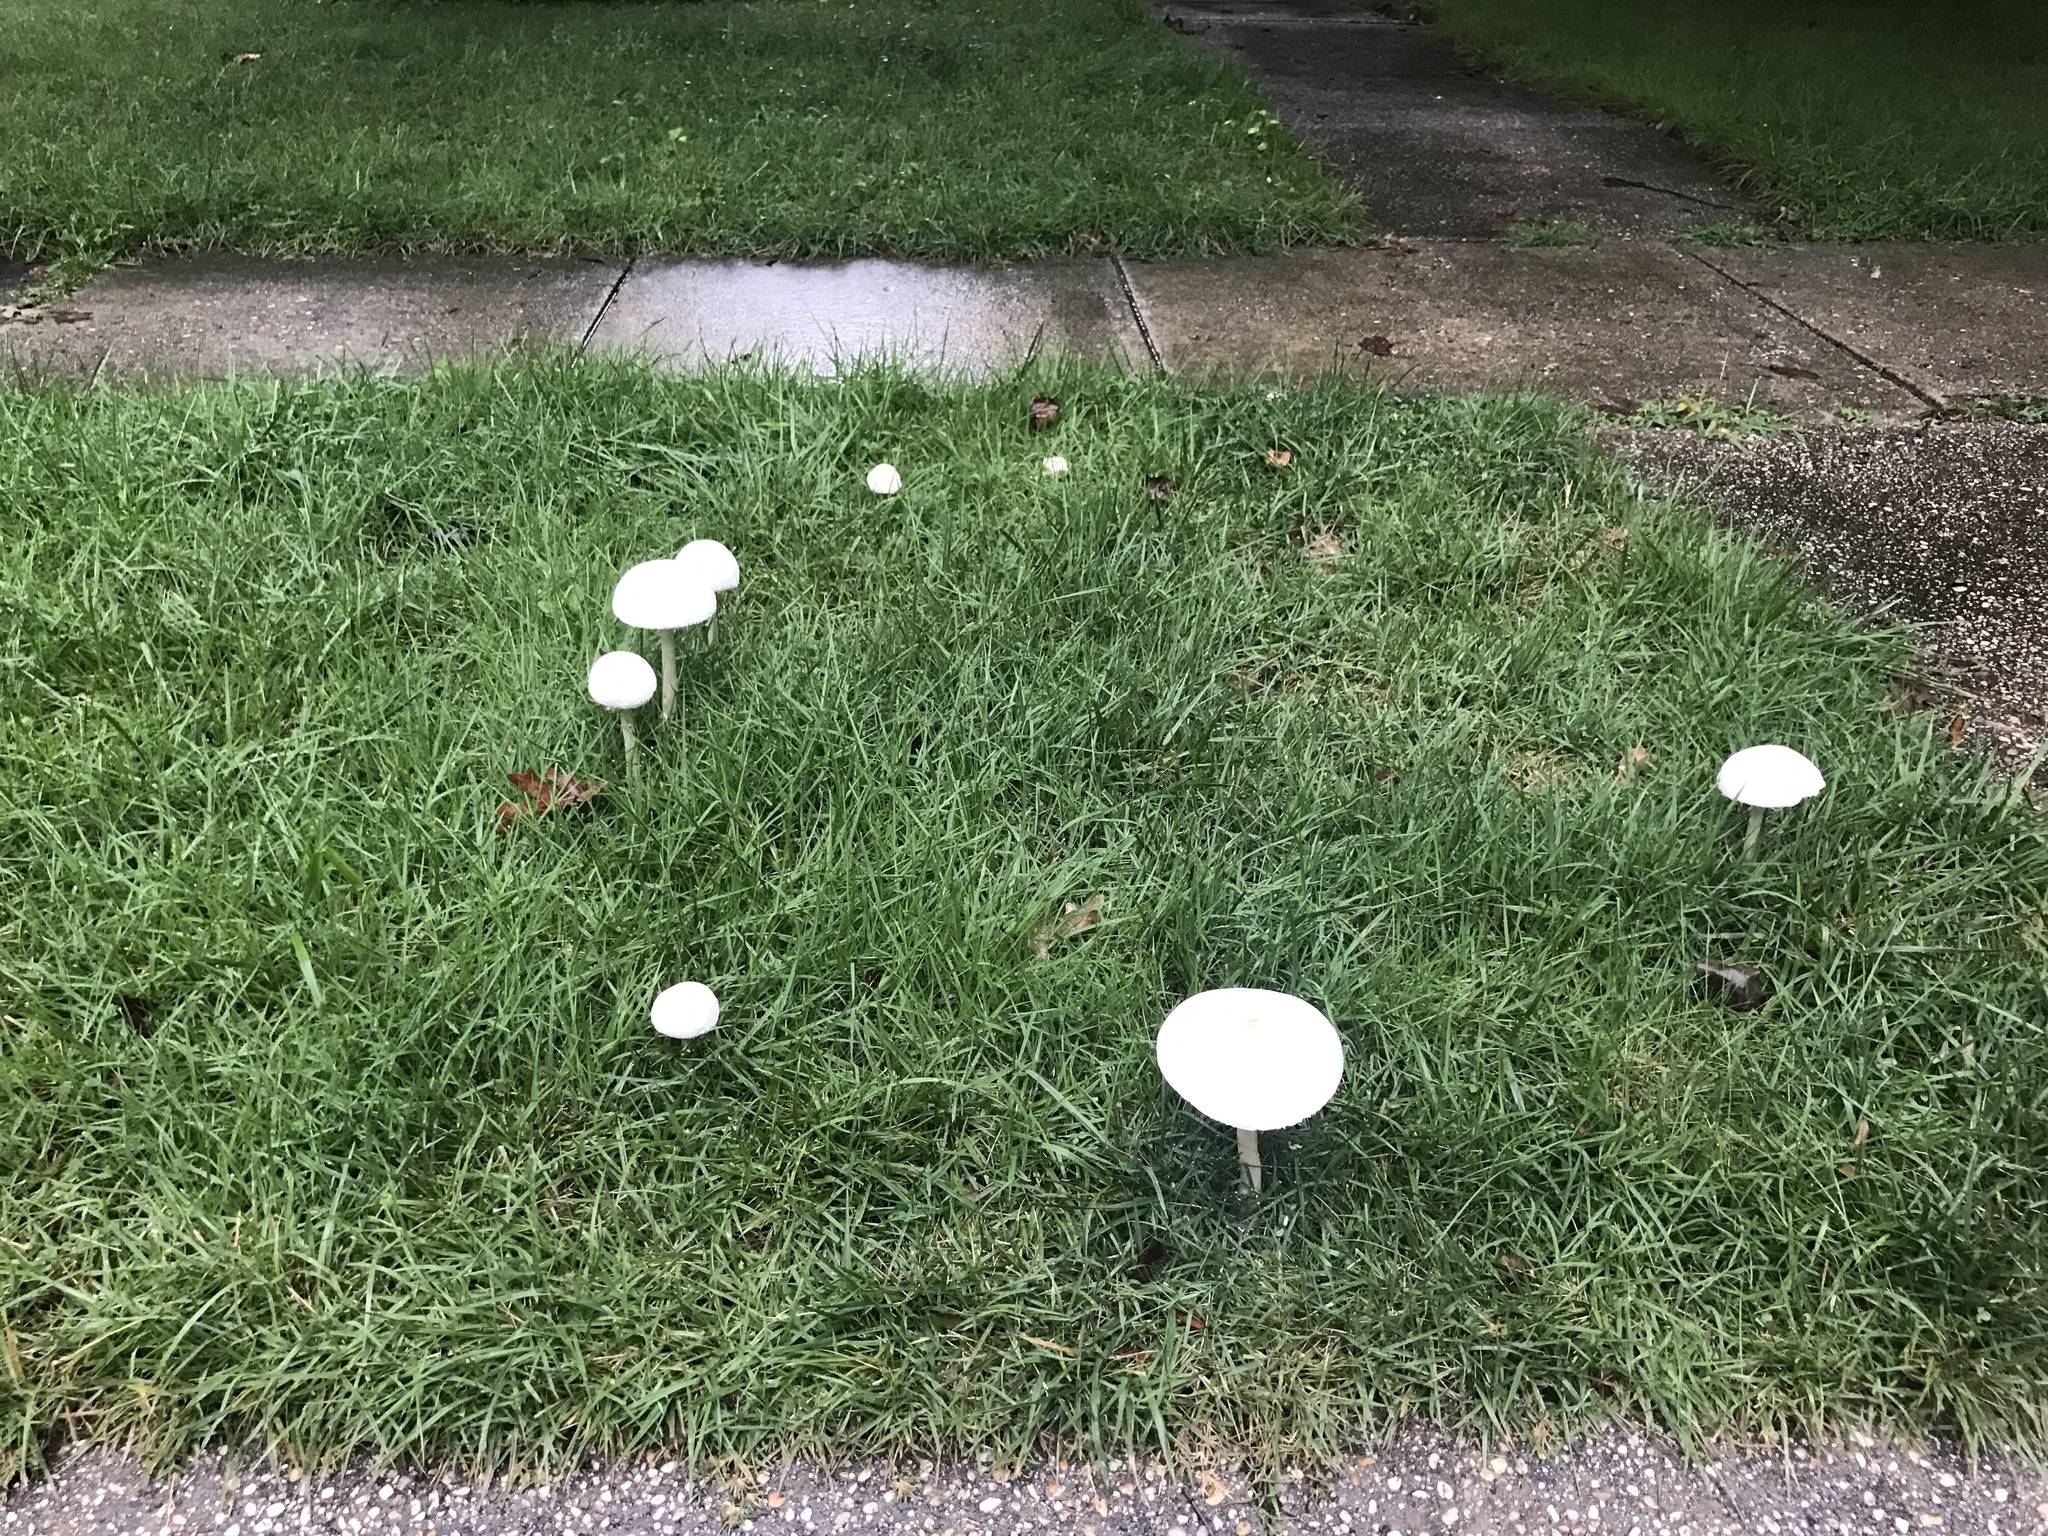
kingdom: Fungi
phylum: Basidiomycota
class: Agaricomycetes
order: Agaricales
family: Agaricaceae
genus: Chlorophyllum
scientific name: Chlorophyllum molybdites
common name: False parasol
